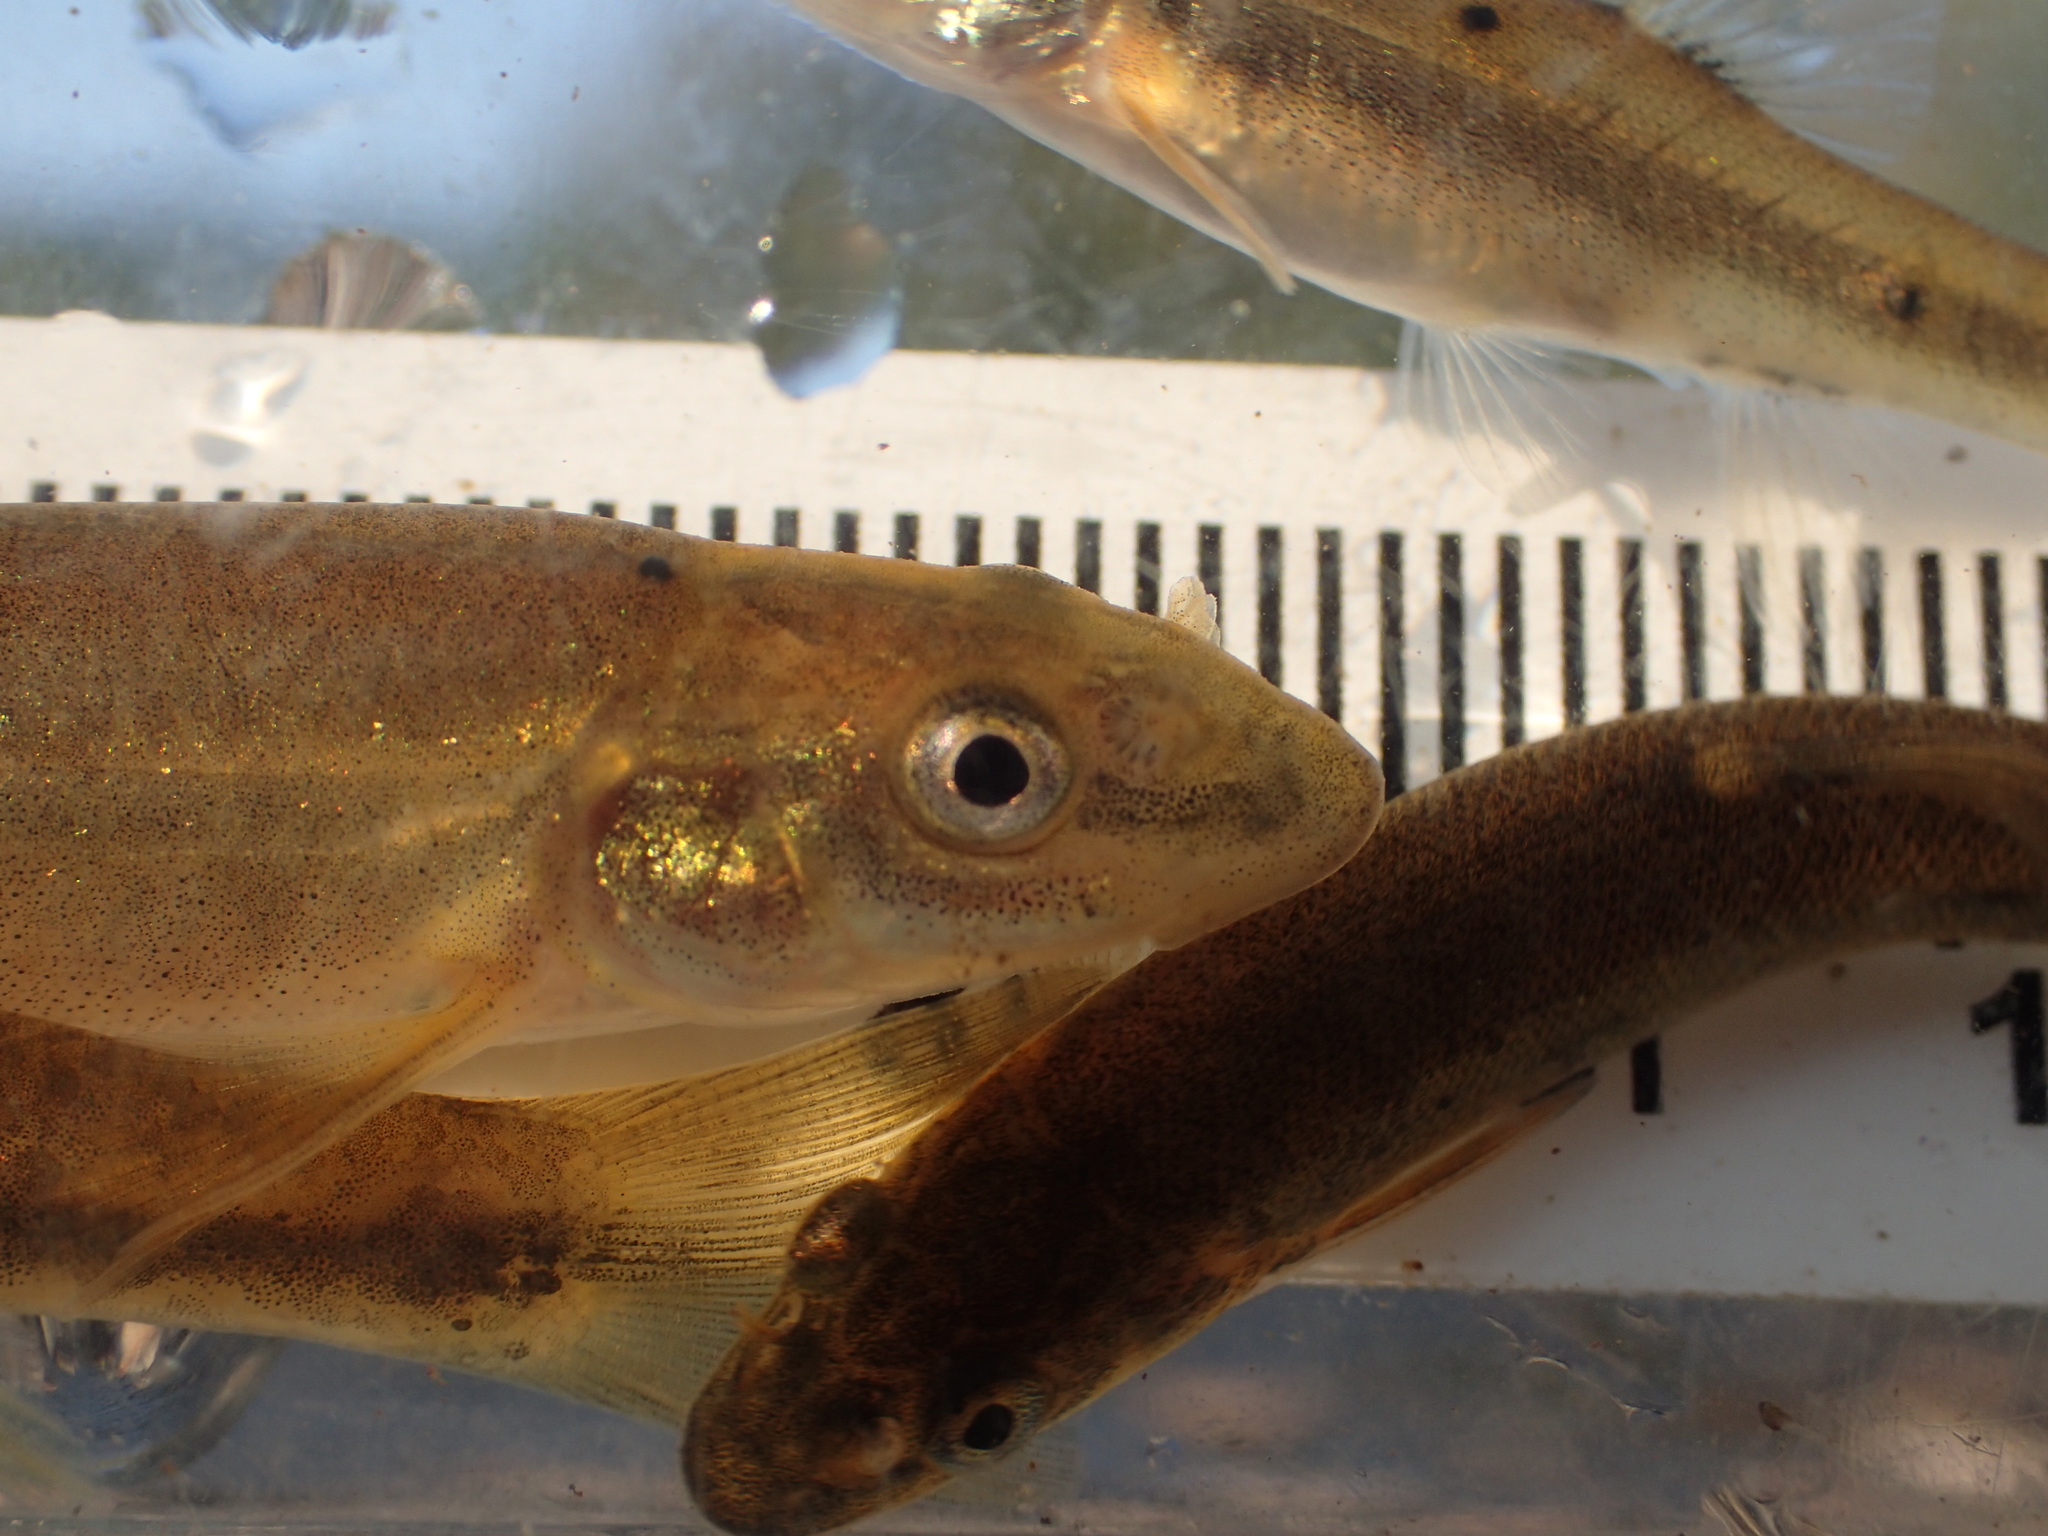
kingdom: Animalia
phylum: Chordata
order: Cypriniformes
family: Cyprinidae
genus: Rhinichthys
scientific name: Rhinichthys cataractae
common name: Longnose dace
